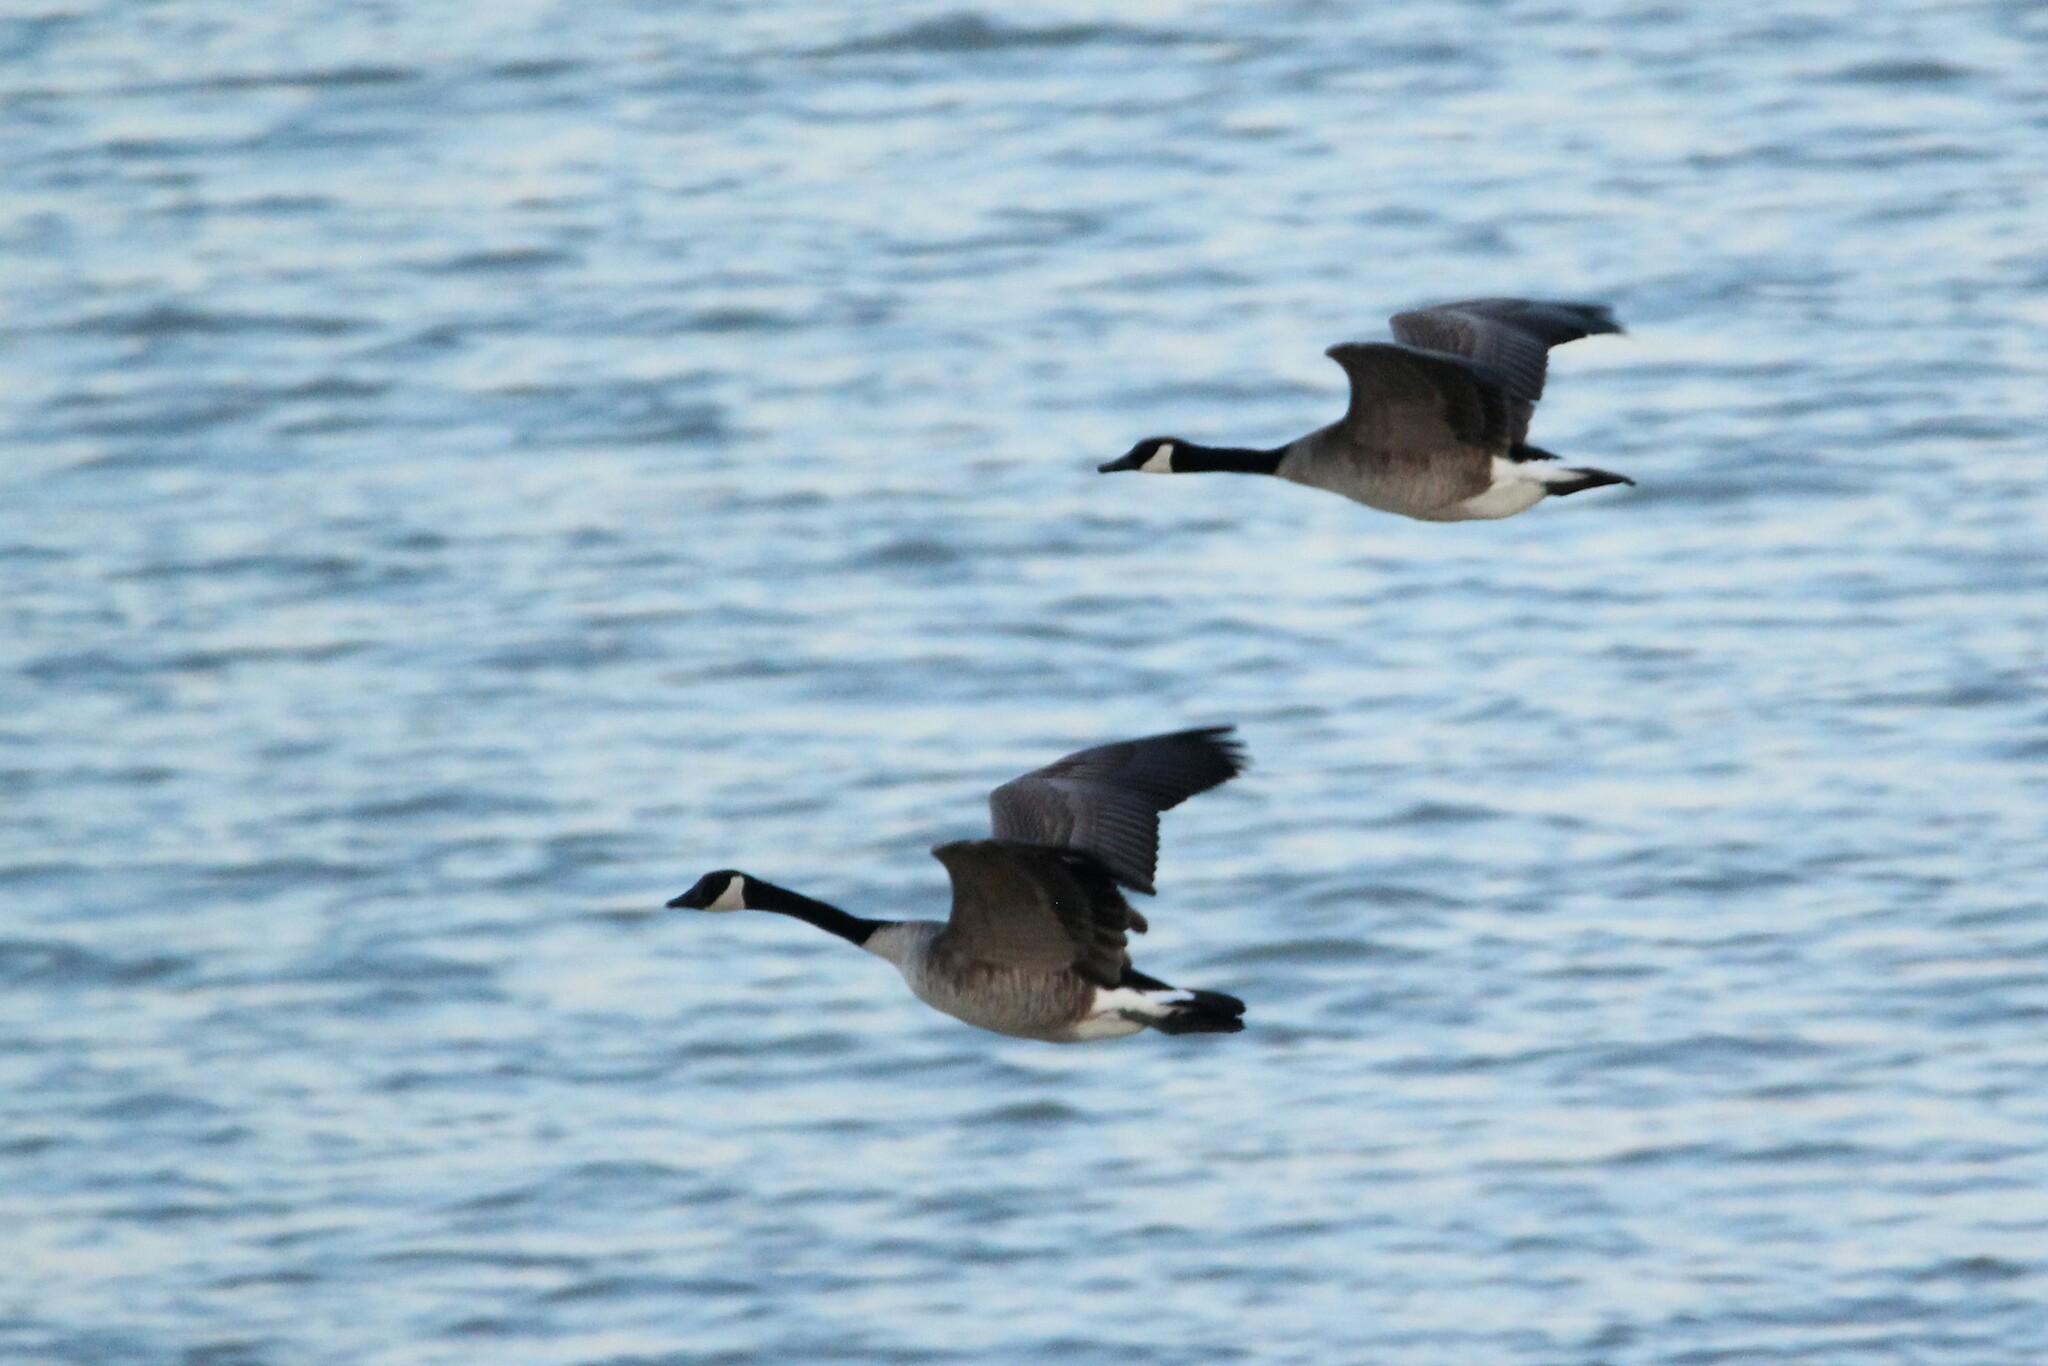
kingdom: Animalia
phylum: Chordata
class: Aves
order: Anseriformes
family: Anatidae
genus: Branta
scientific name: Branta canadensis
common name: Canada goose
